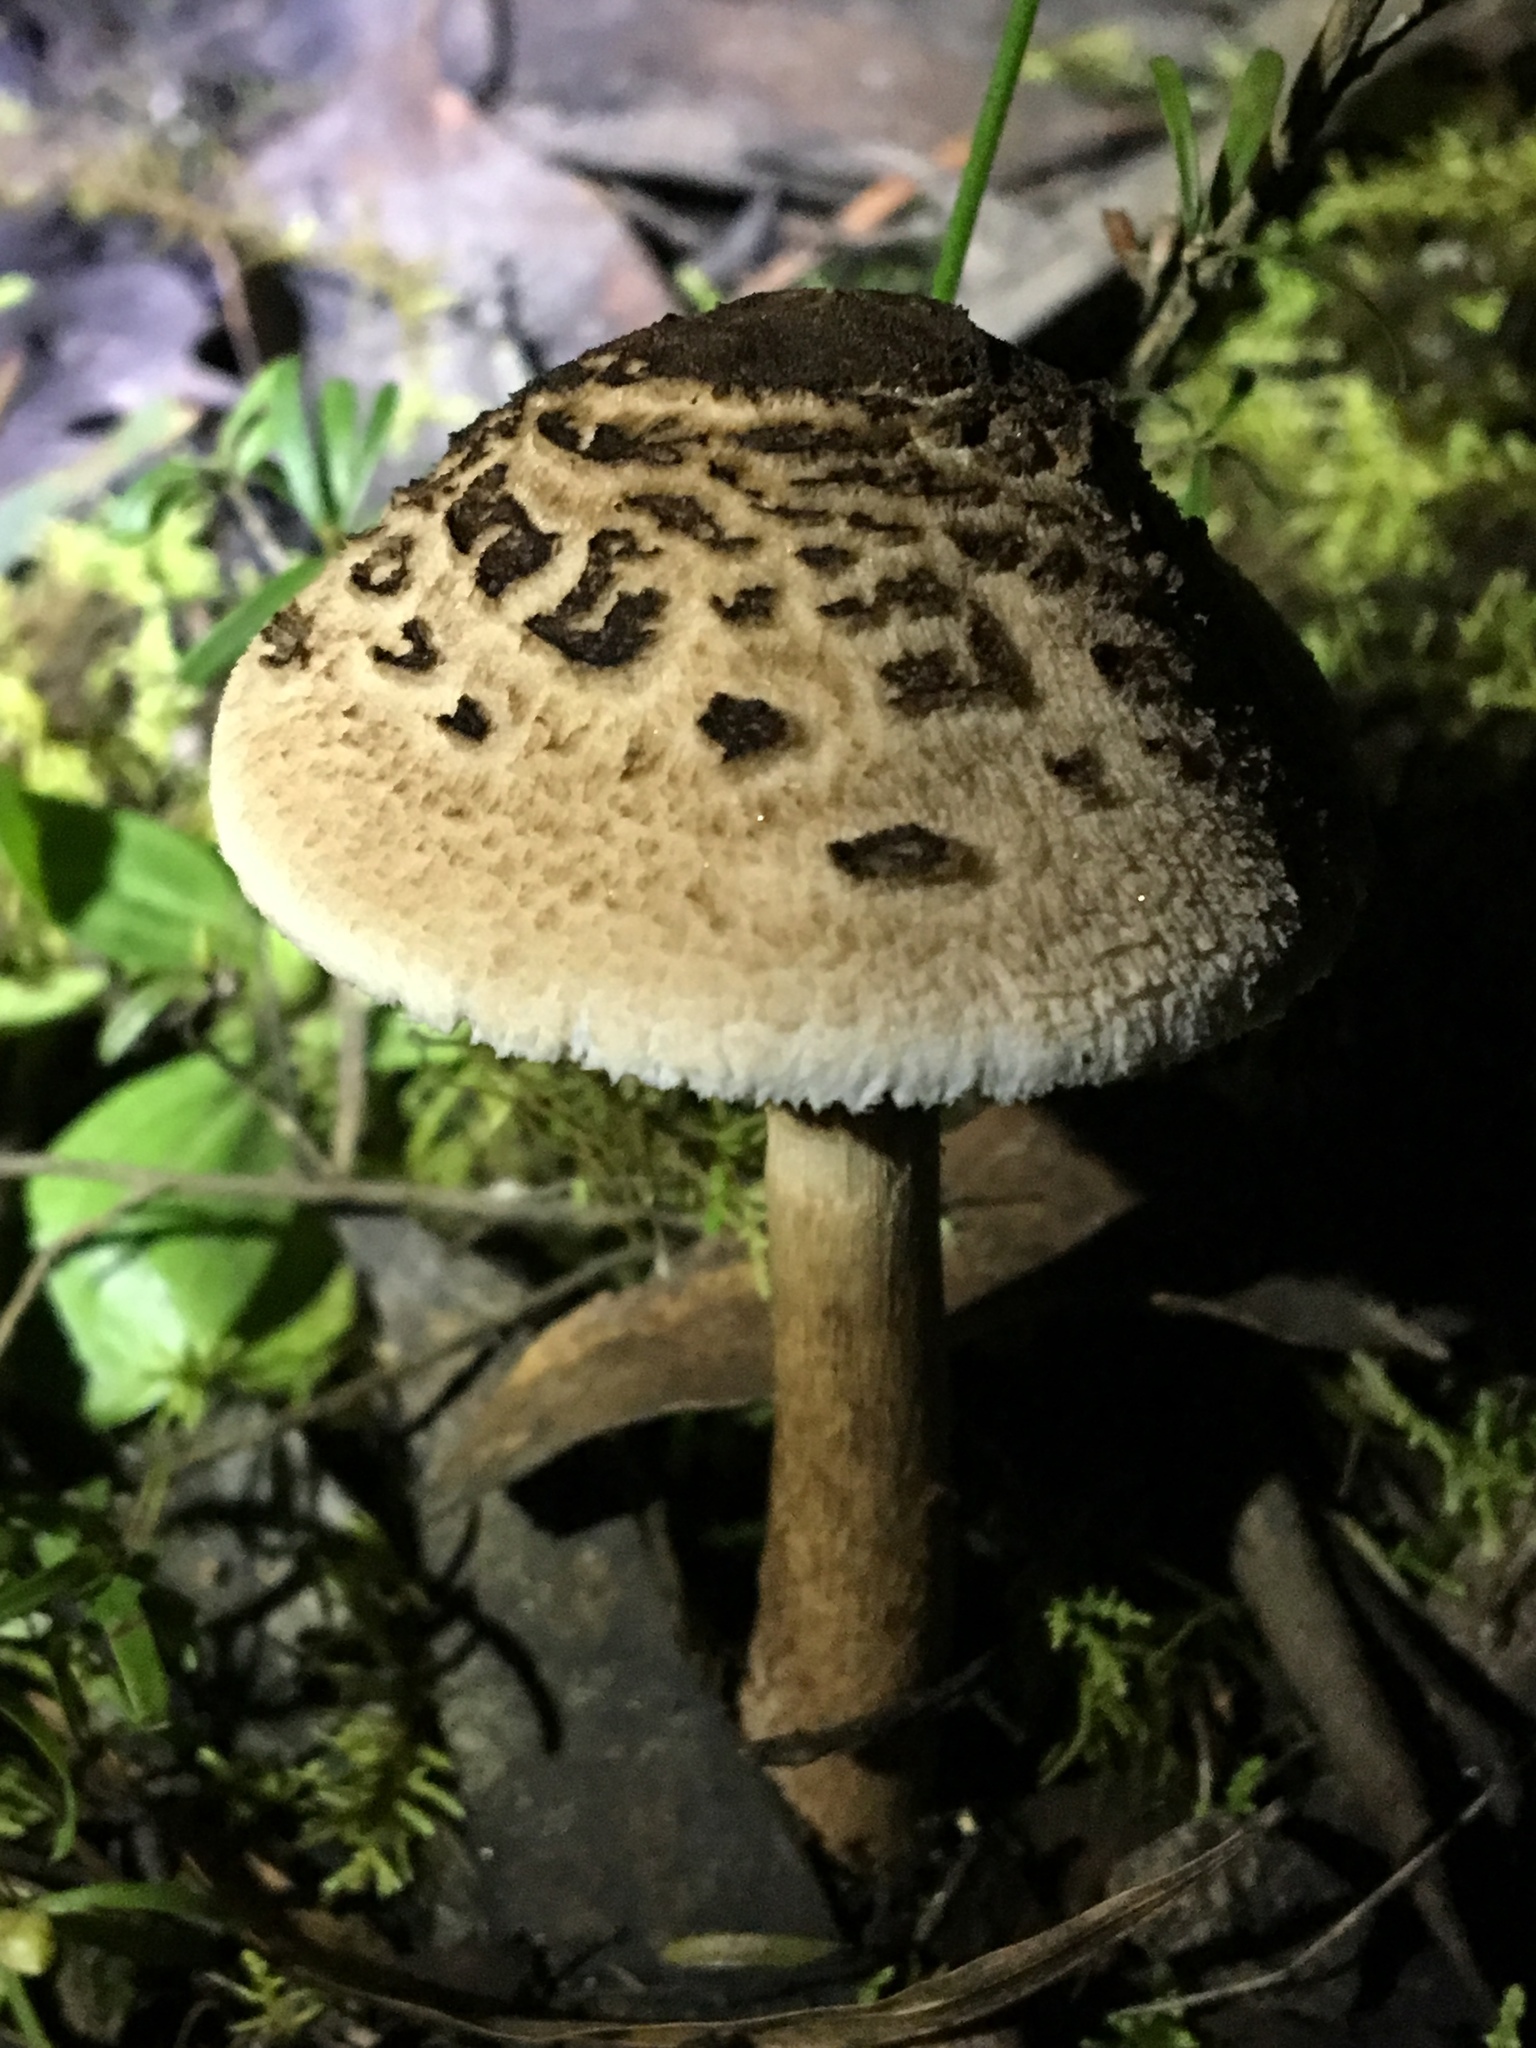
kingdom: Fungi
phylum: Basidiomycota
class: Agaricomycetes
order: Agaricales
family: Agaricaceae
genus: Macrolepiota
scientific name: Macrolepiota clelandii
